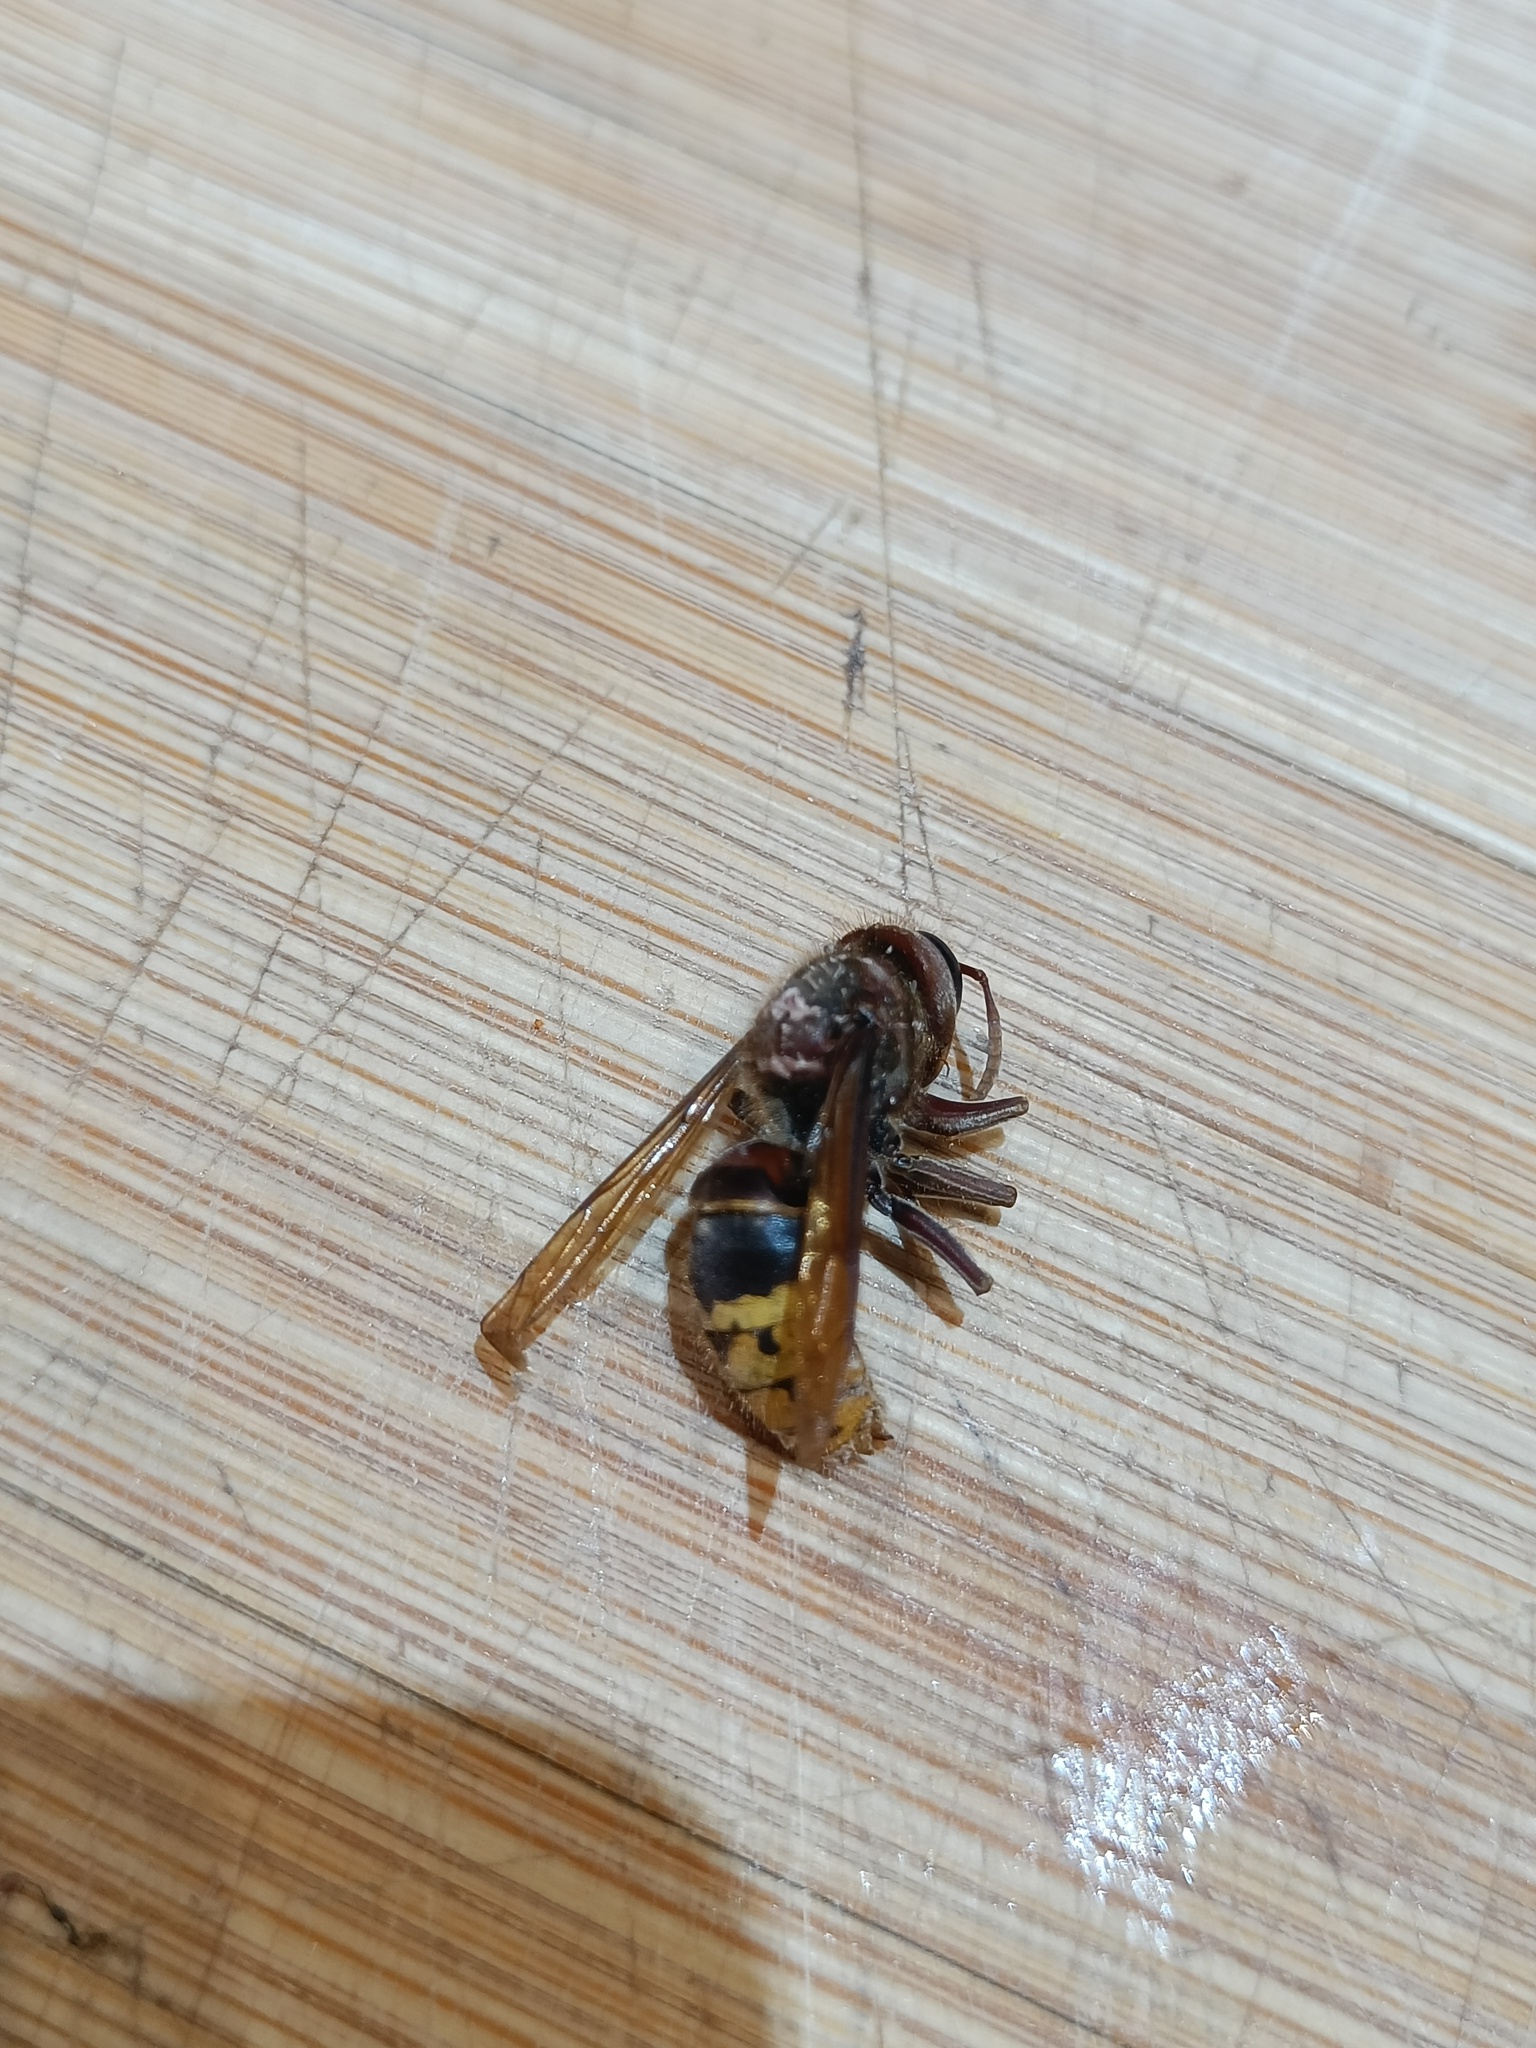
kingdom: Animalia
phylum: Arthropoda
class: Insecta
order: Hymenoptera
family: Vespidae
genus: Vespa
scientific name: Vespa crabro
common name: Hornet
